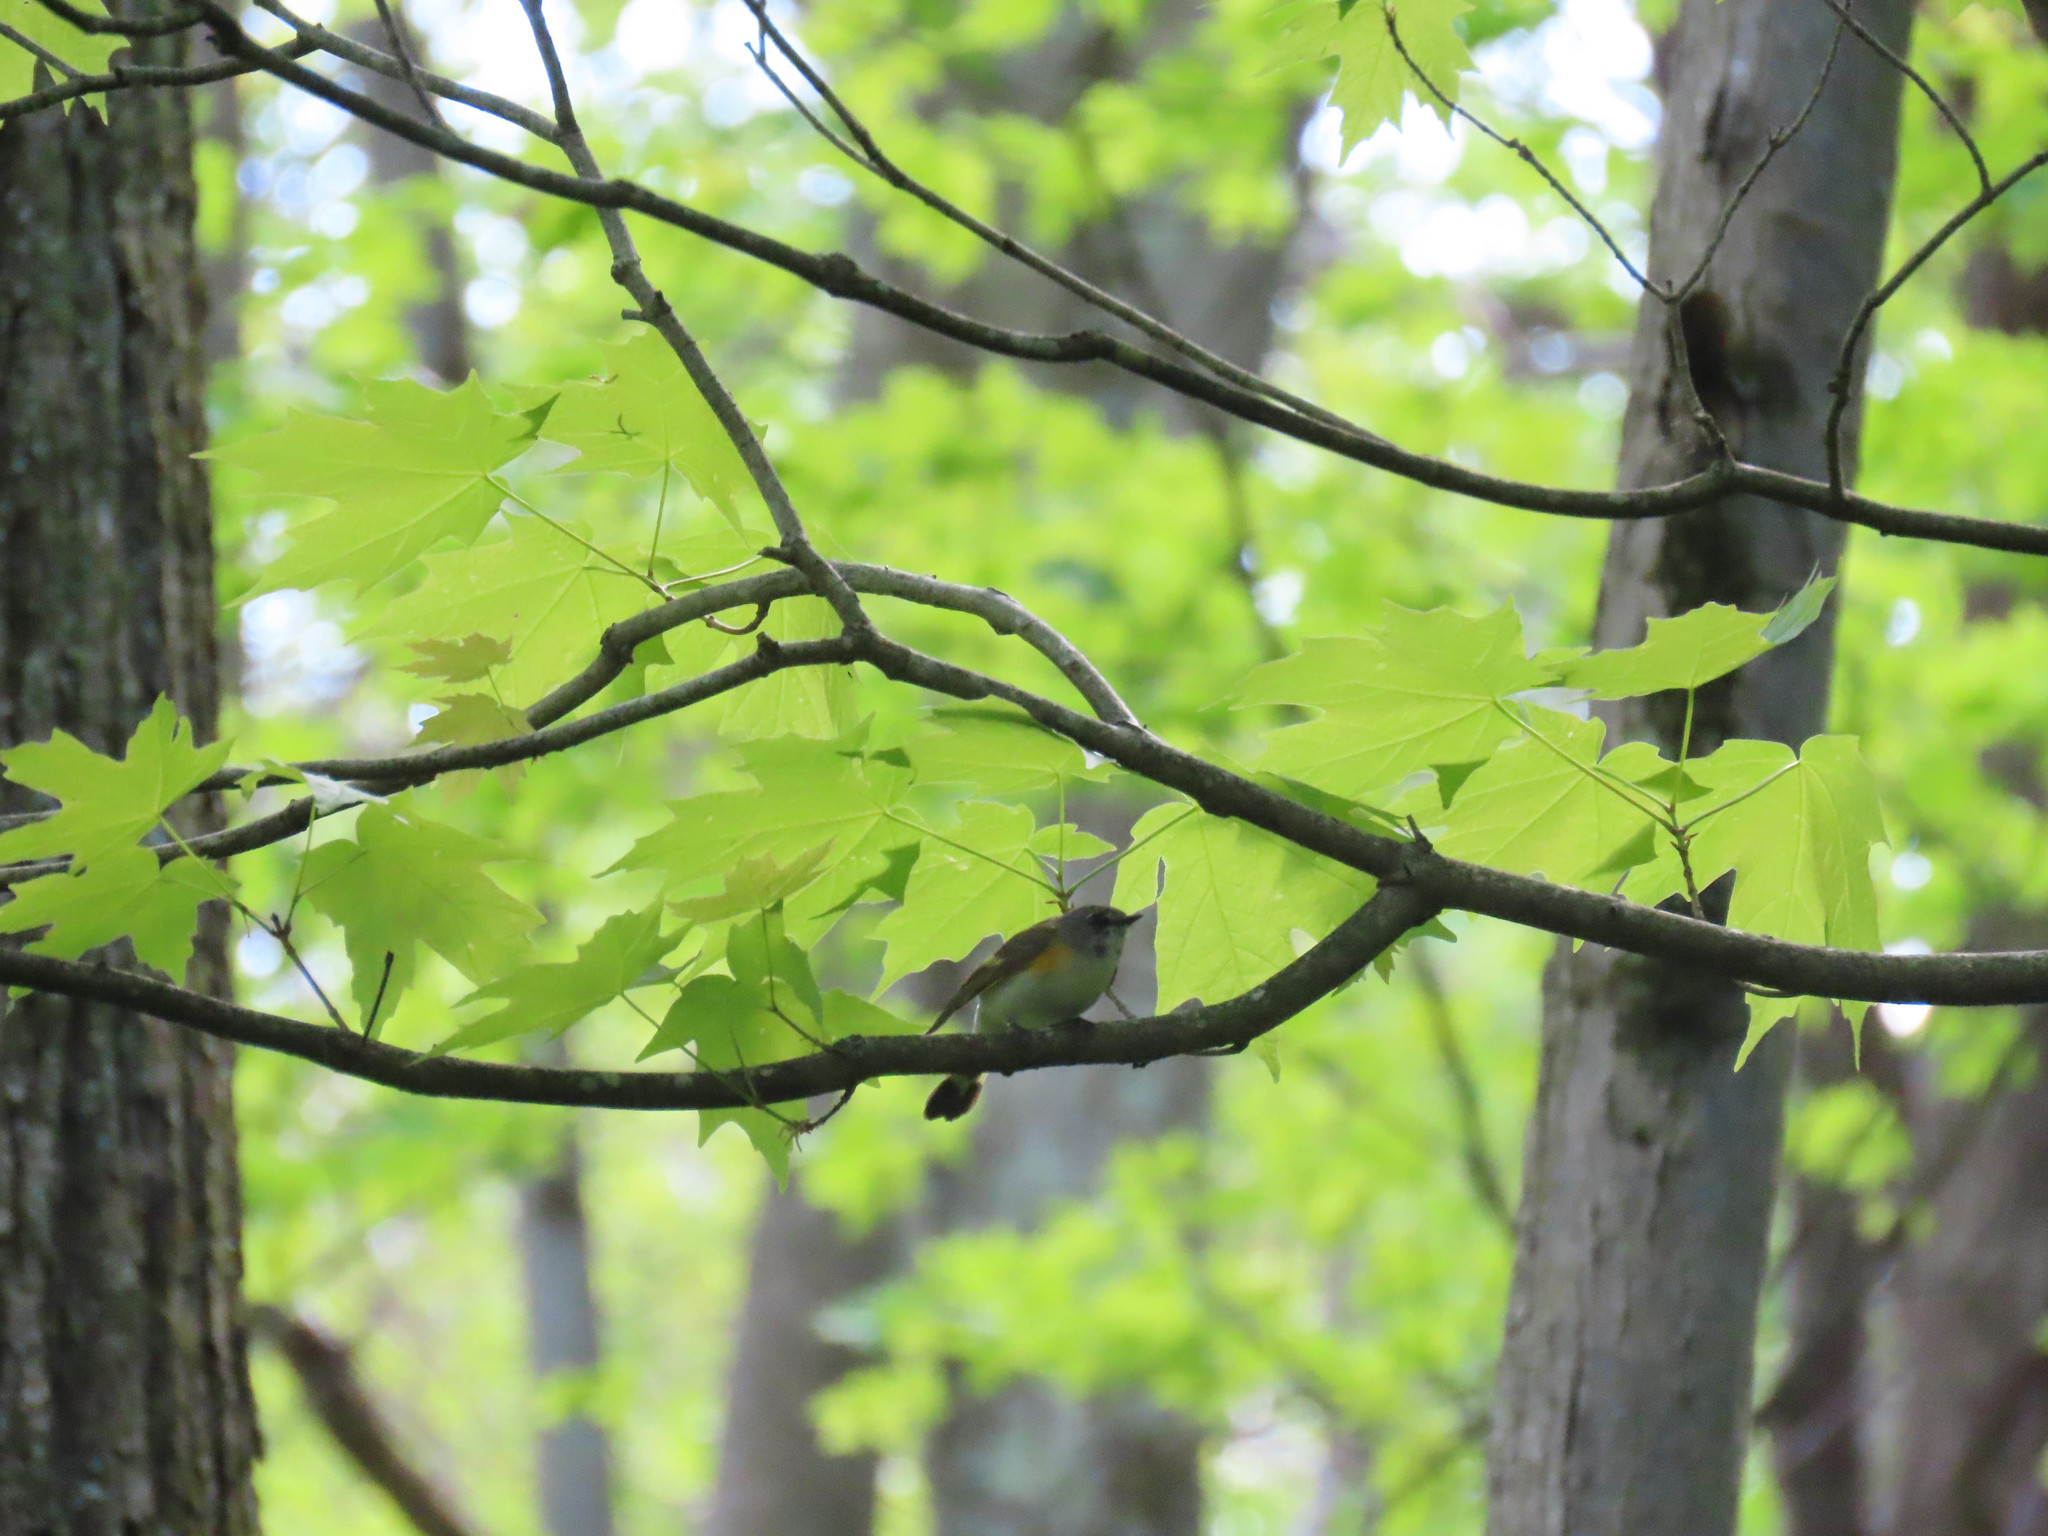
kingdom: Animalia
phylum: Chordata
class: Aves
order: Passeriformes
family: Parulidae
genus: Setophaga
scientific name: Setophaga ruticilla
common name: American redstart
